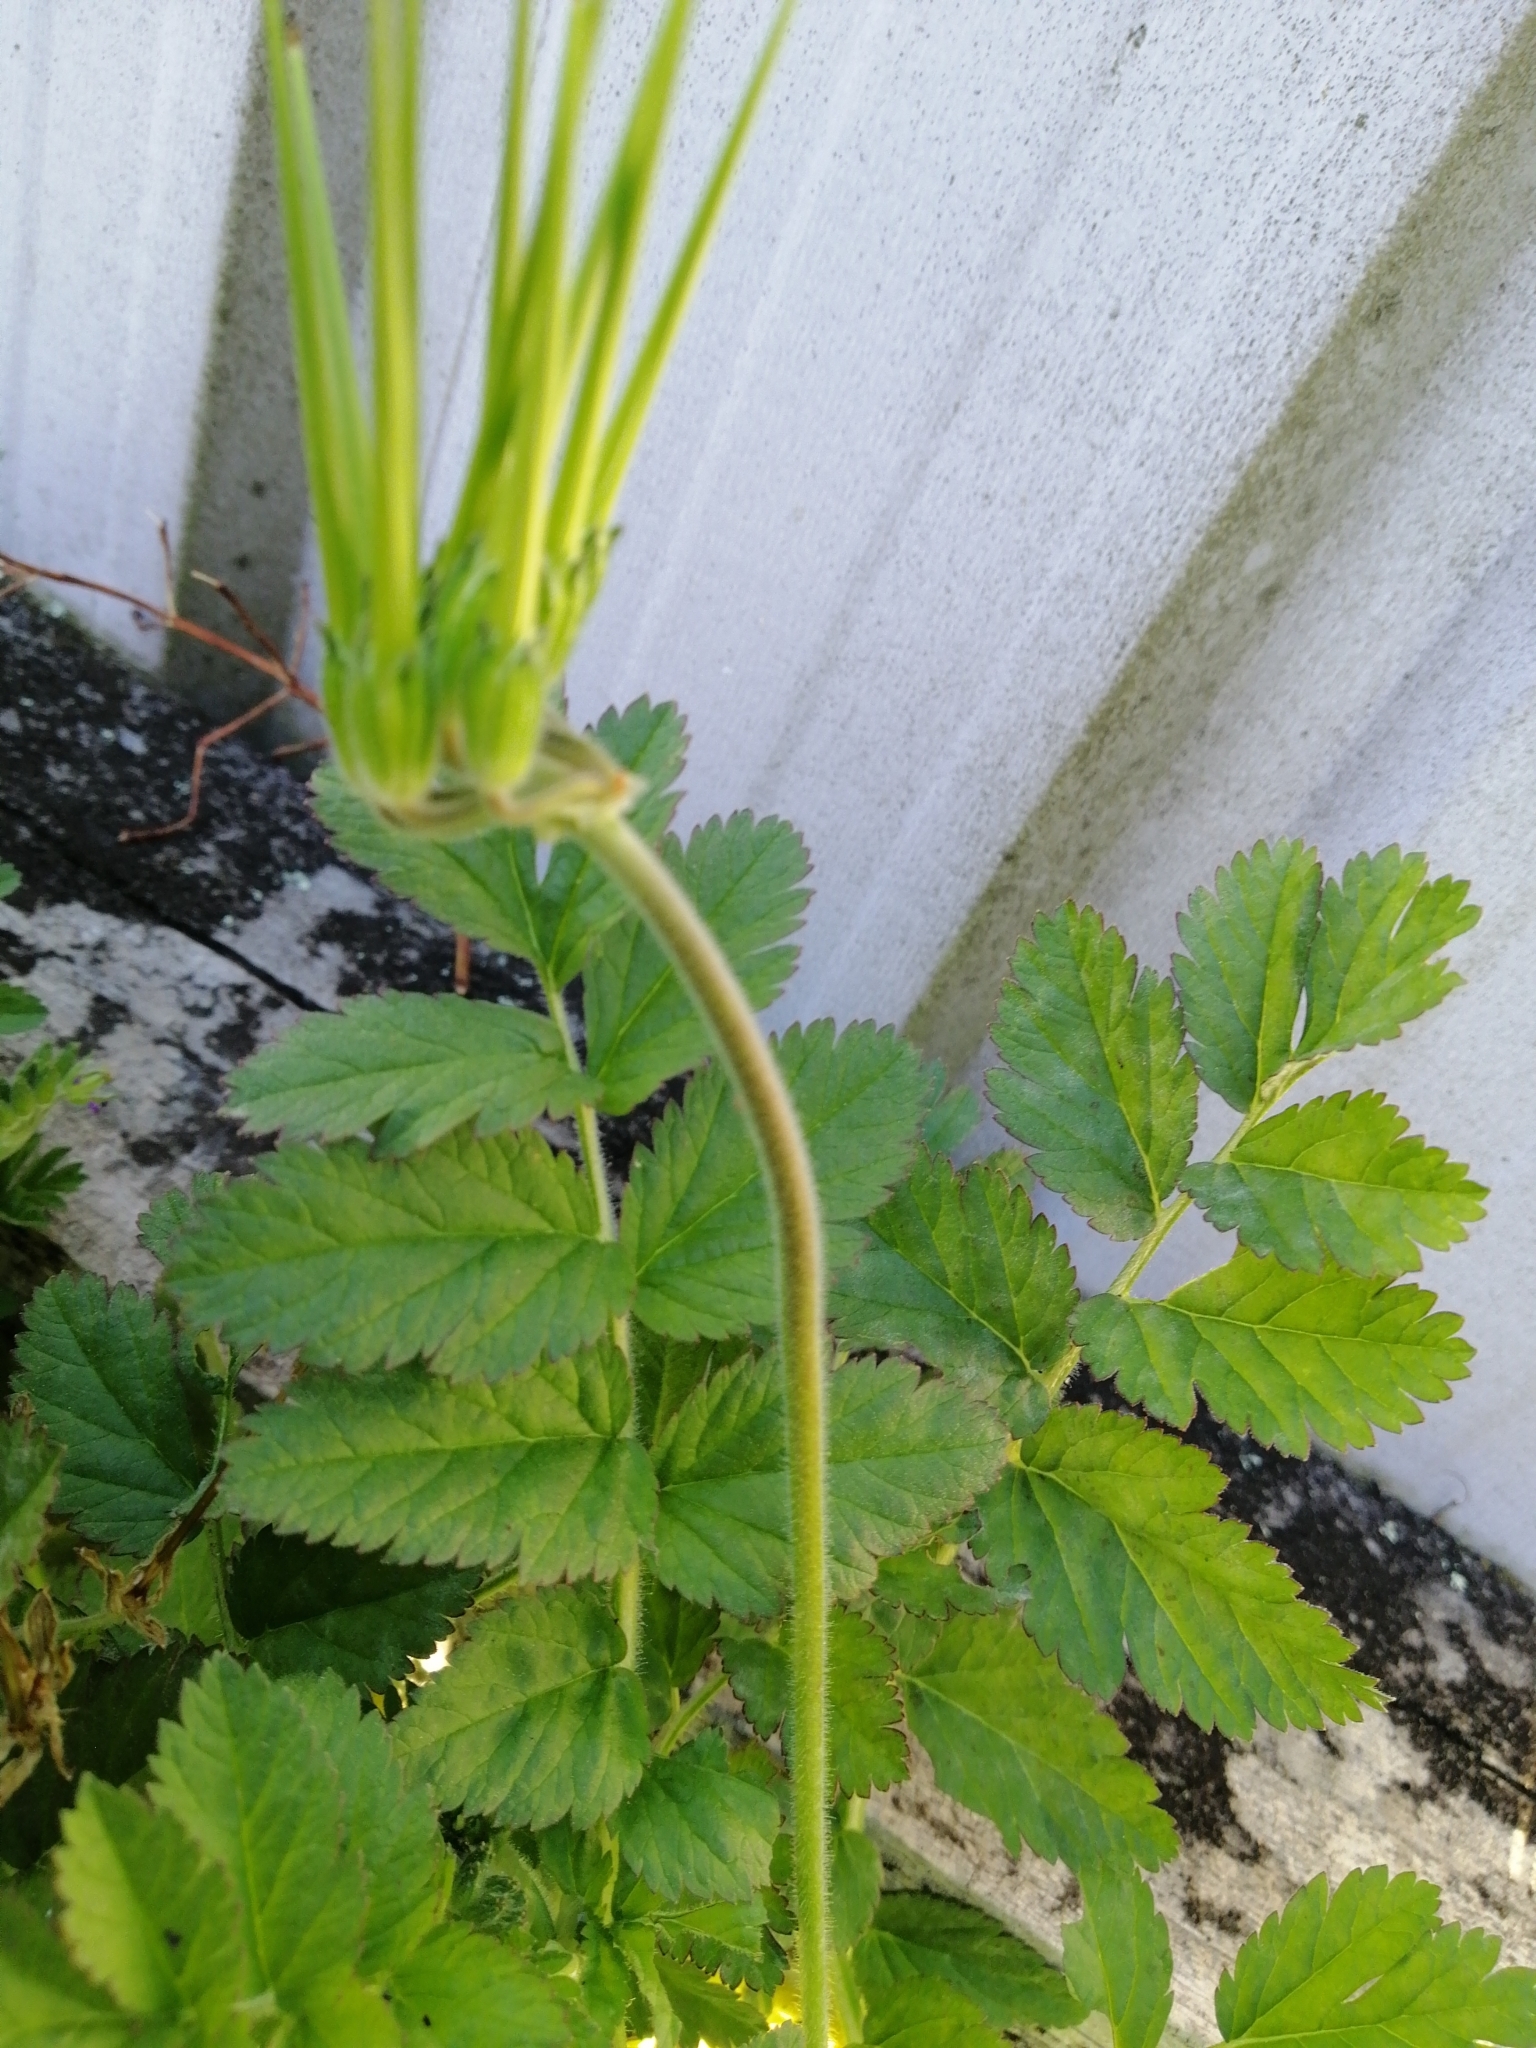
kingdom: Plantae
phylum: Tracheophyta
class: Magnoliopsida
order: Geraniales
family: Geraniaceae
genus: Erodium
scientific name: Erodium moschatum
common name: Musk stork's-bill
